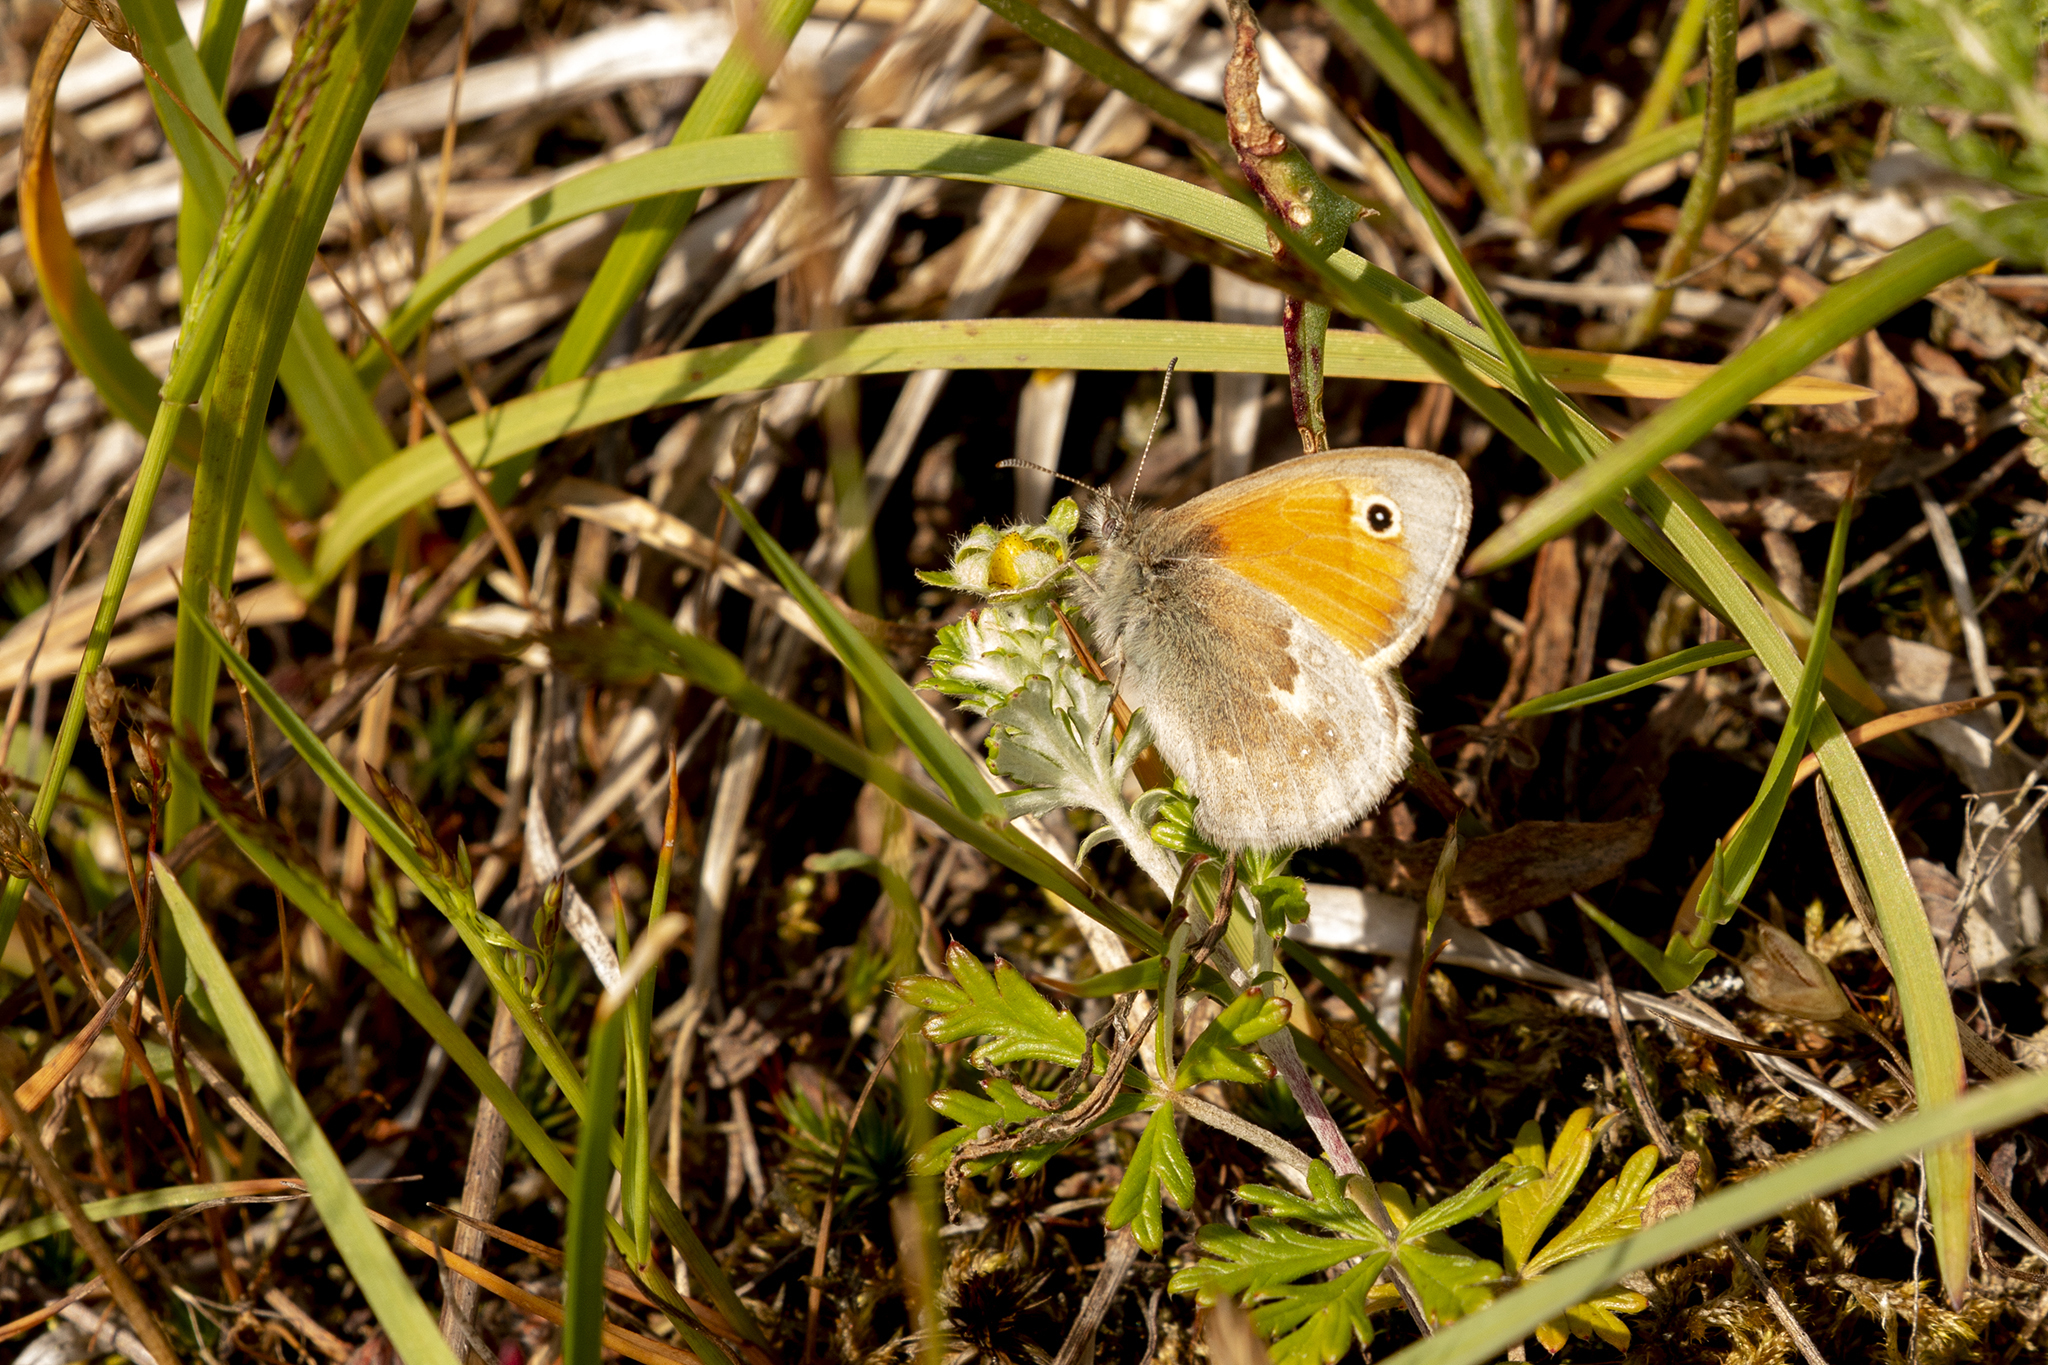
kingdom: Animalia
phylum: Arthropoda
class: Insecta
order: Lepidoptera
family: Nymphalidae
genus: Coenonympha
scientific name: Coenonympha pamphilus
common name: Small heath
